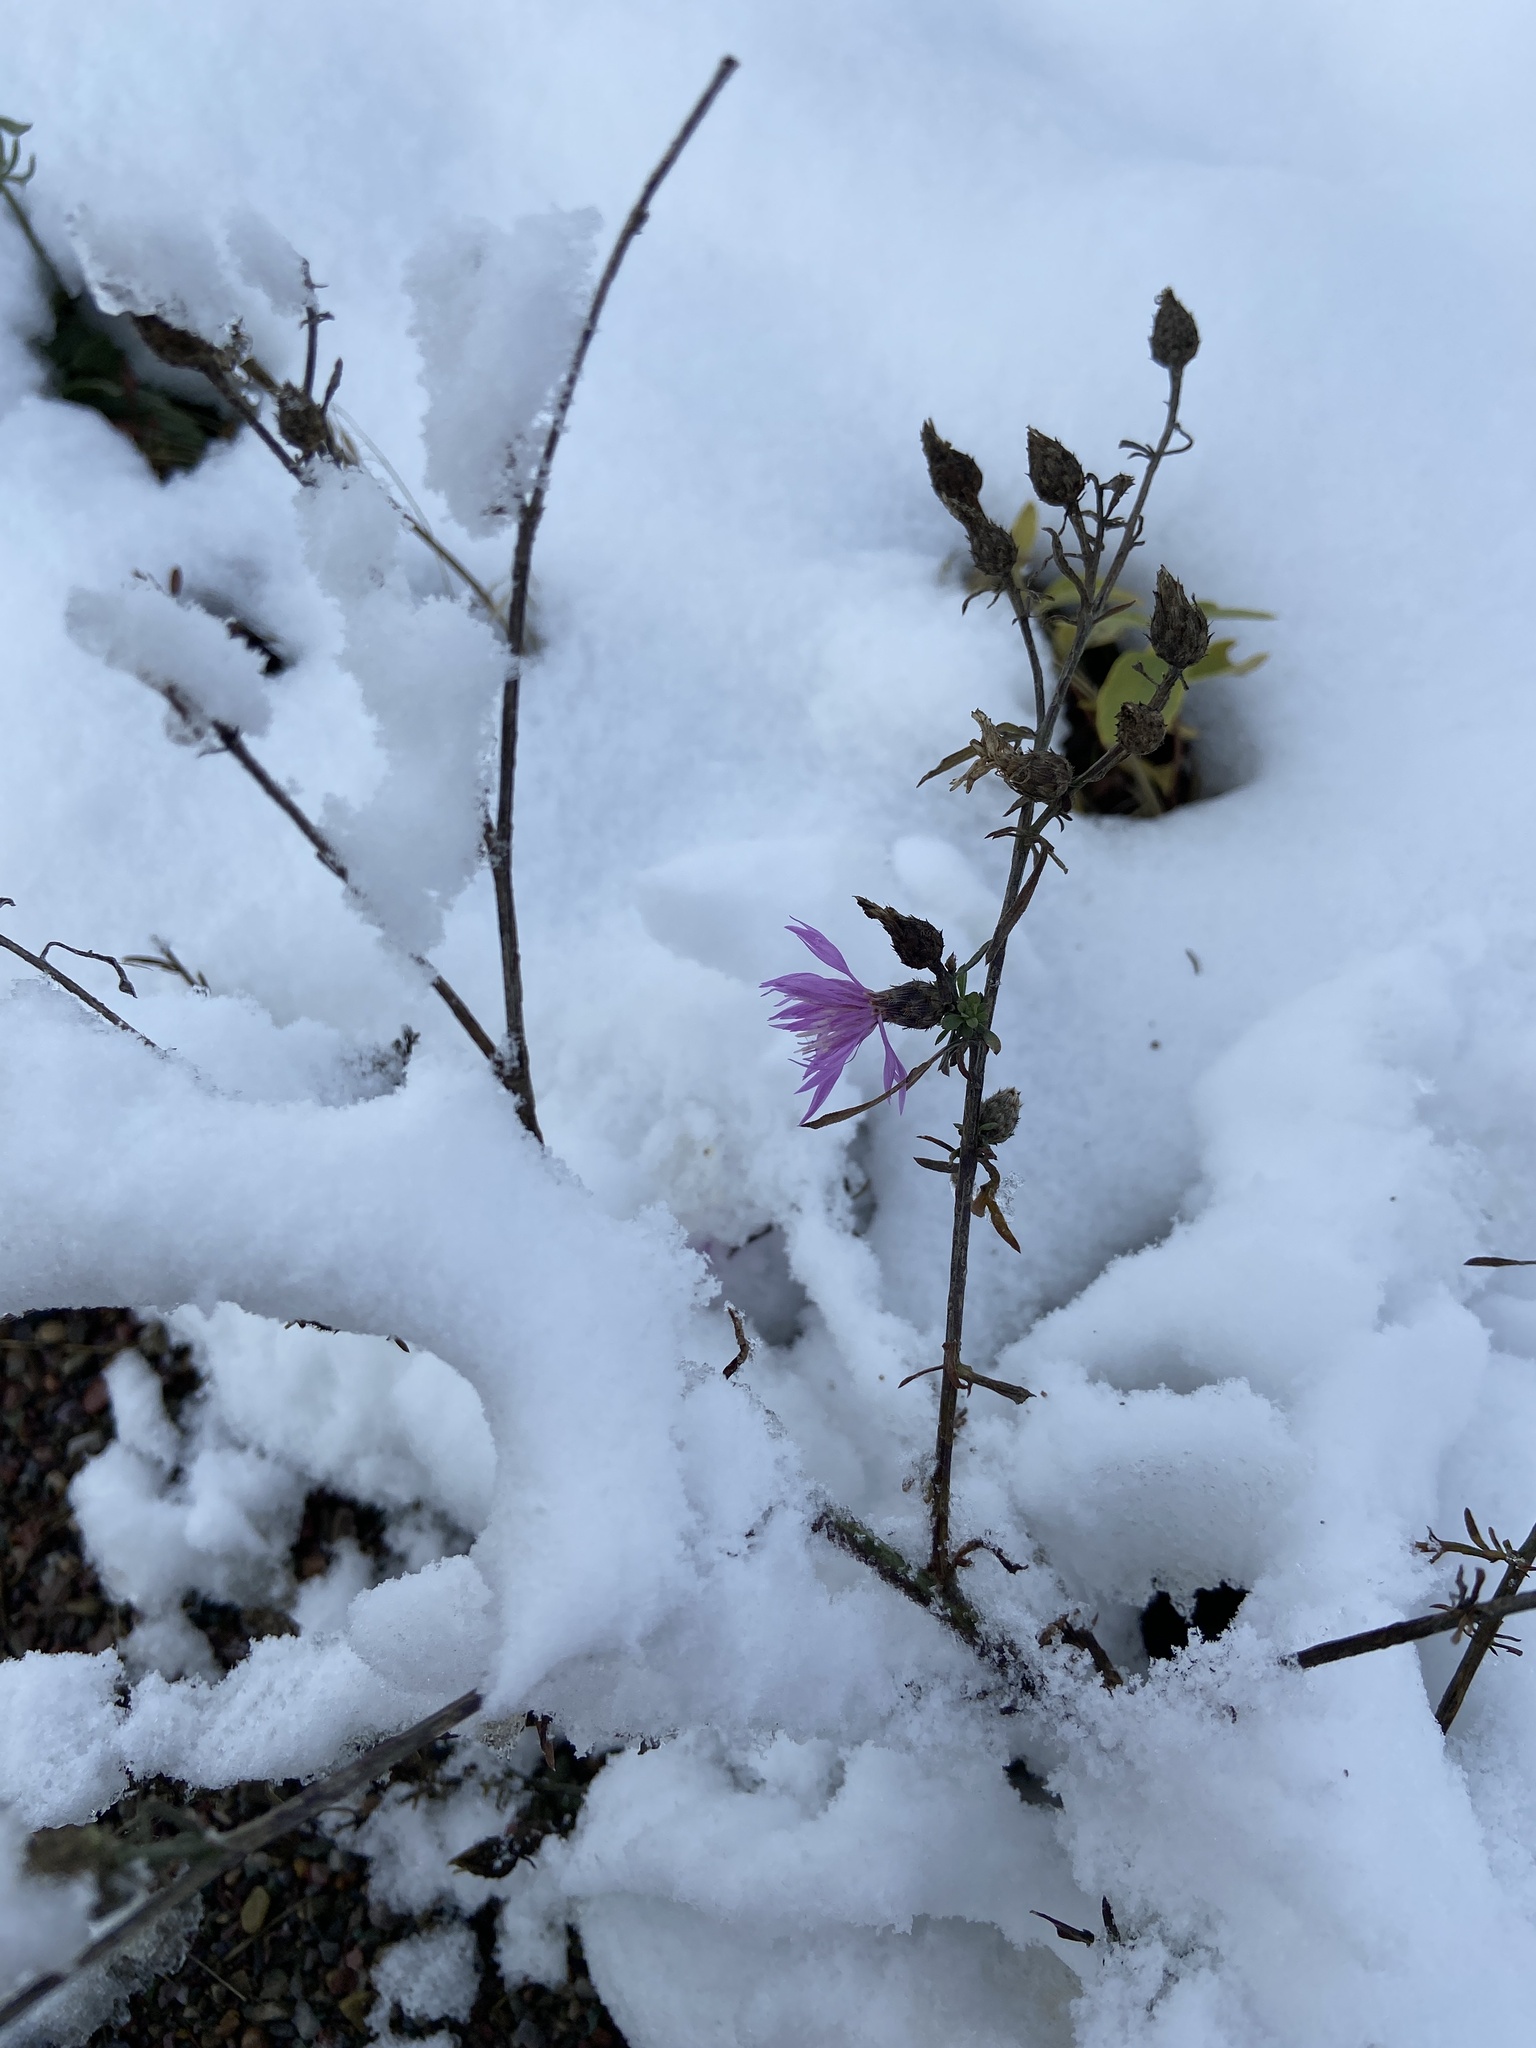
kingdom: Plantae
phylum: Tracheophyta
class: Magnoliopsida
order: Asterales
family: Asteraceae
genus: Centaurea
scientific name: Centaurea stoebe
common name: Spotted knapweed
